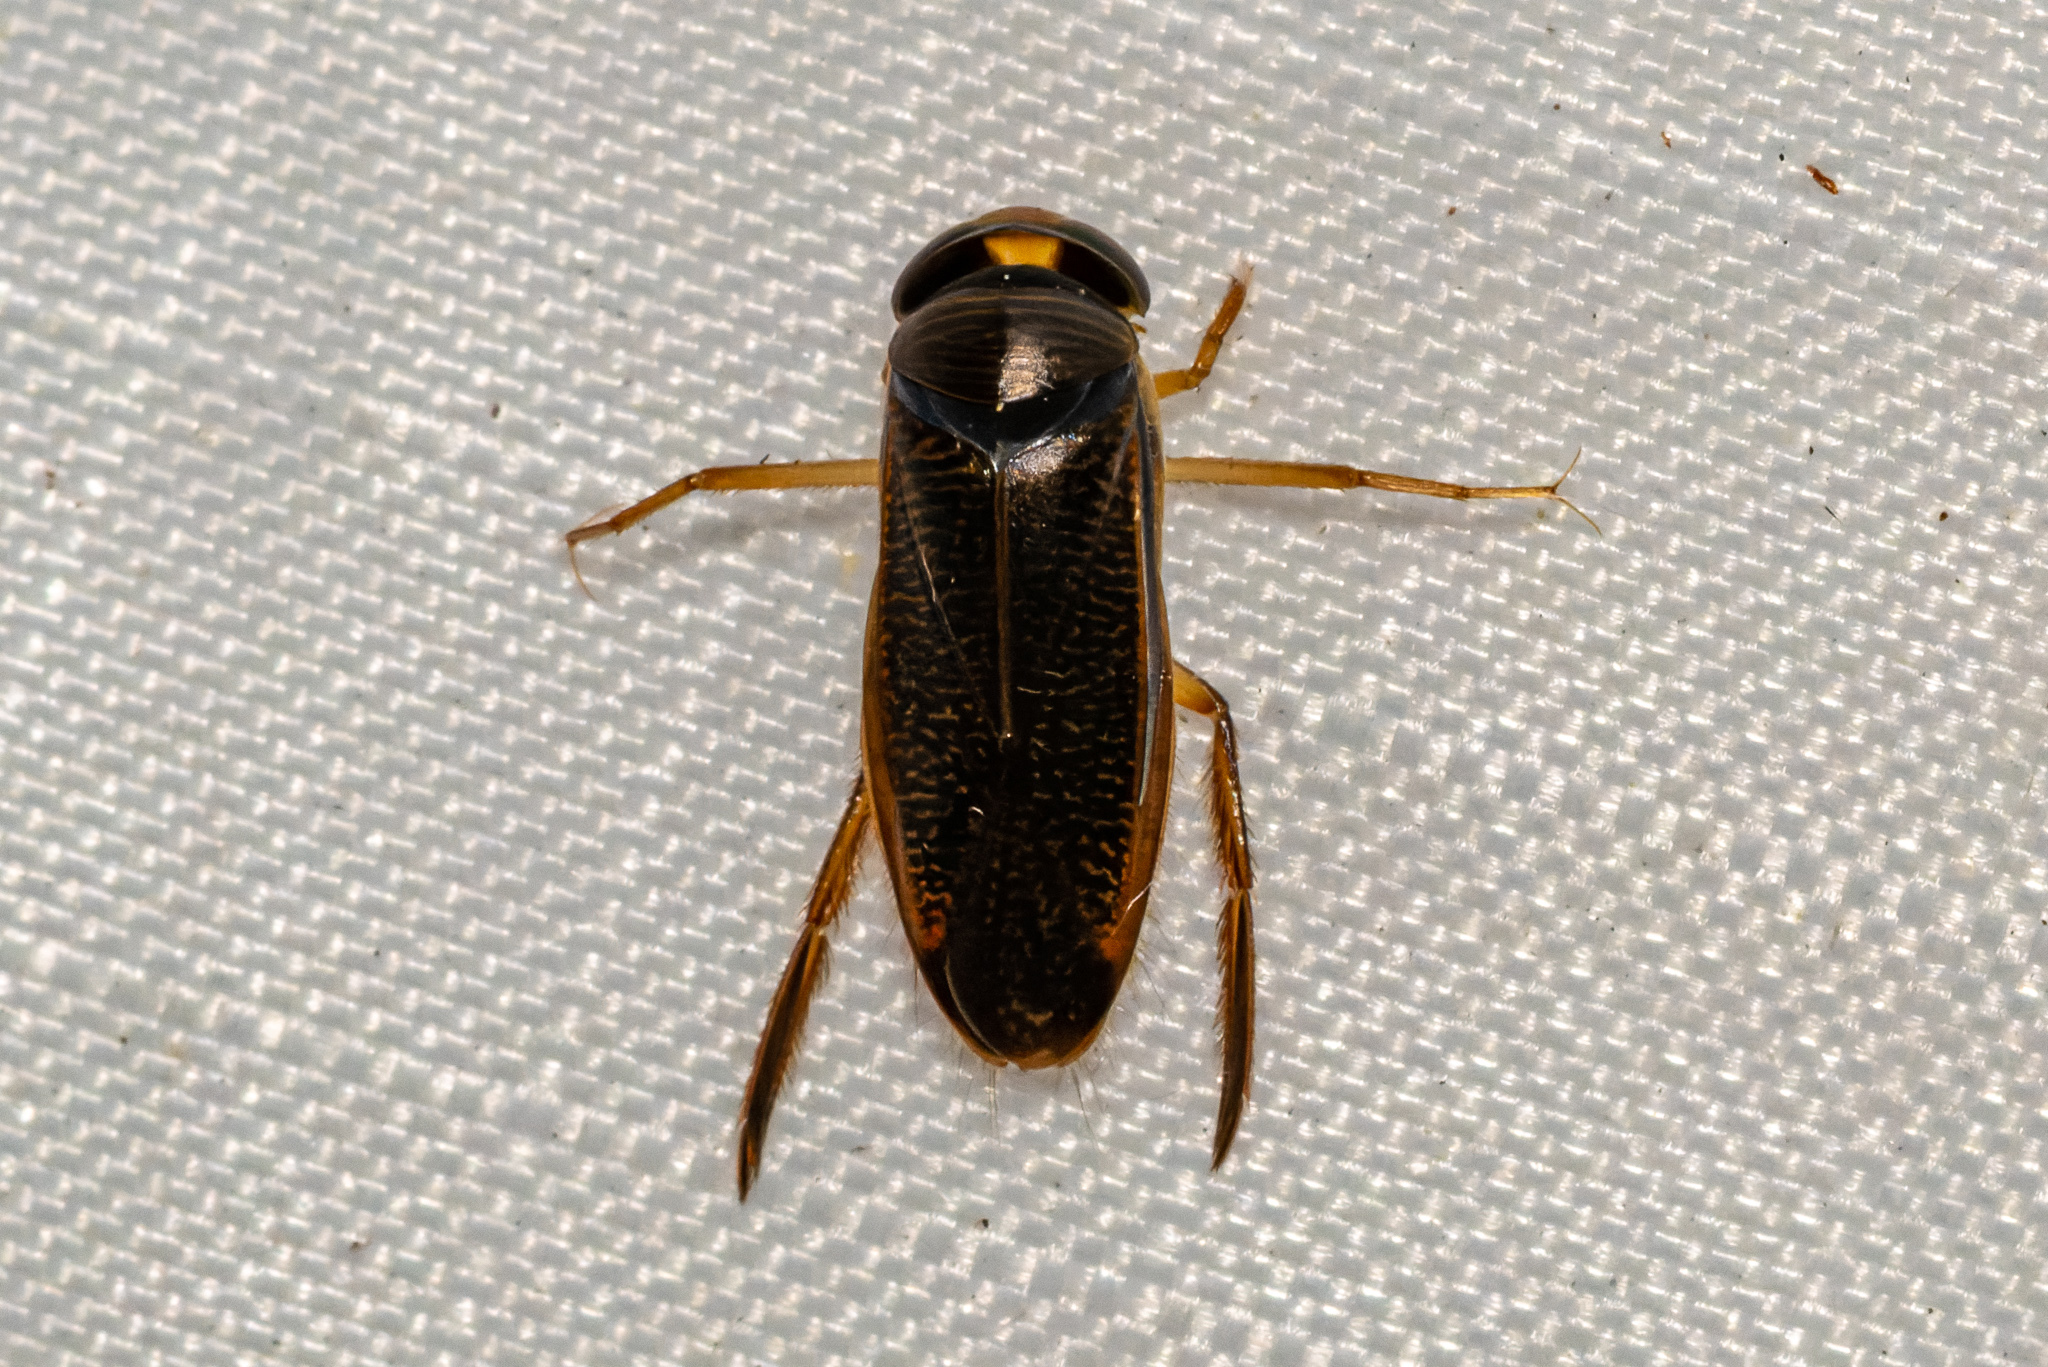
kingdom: Animalia
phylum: Arthropoda
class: Insecta
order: Hemiptera
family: Corixidae
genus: Hesperocorixa
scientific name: Hesperocorixa
